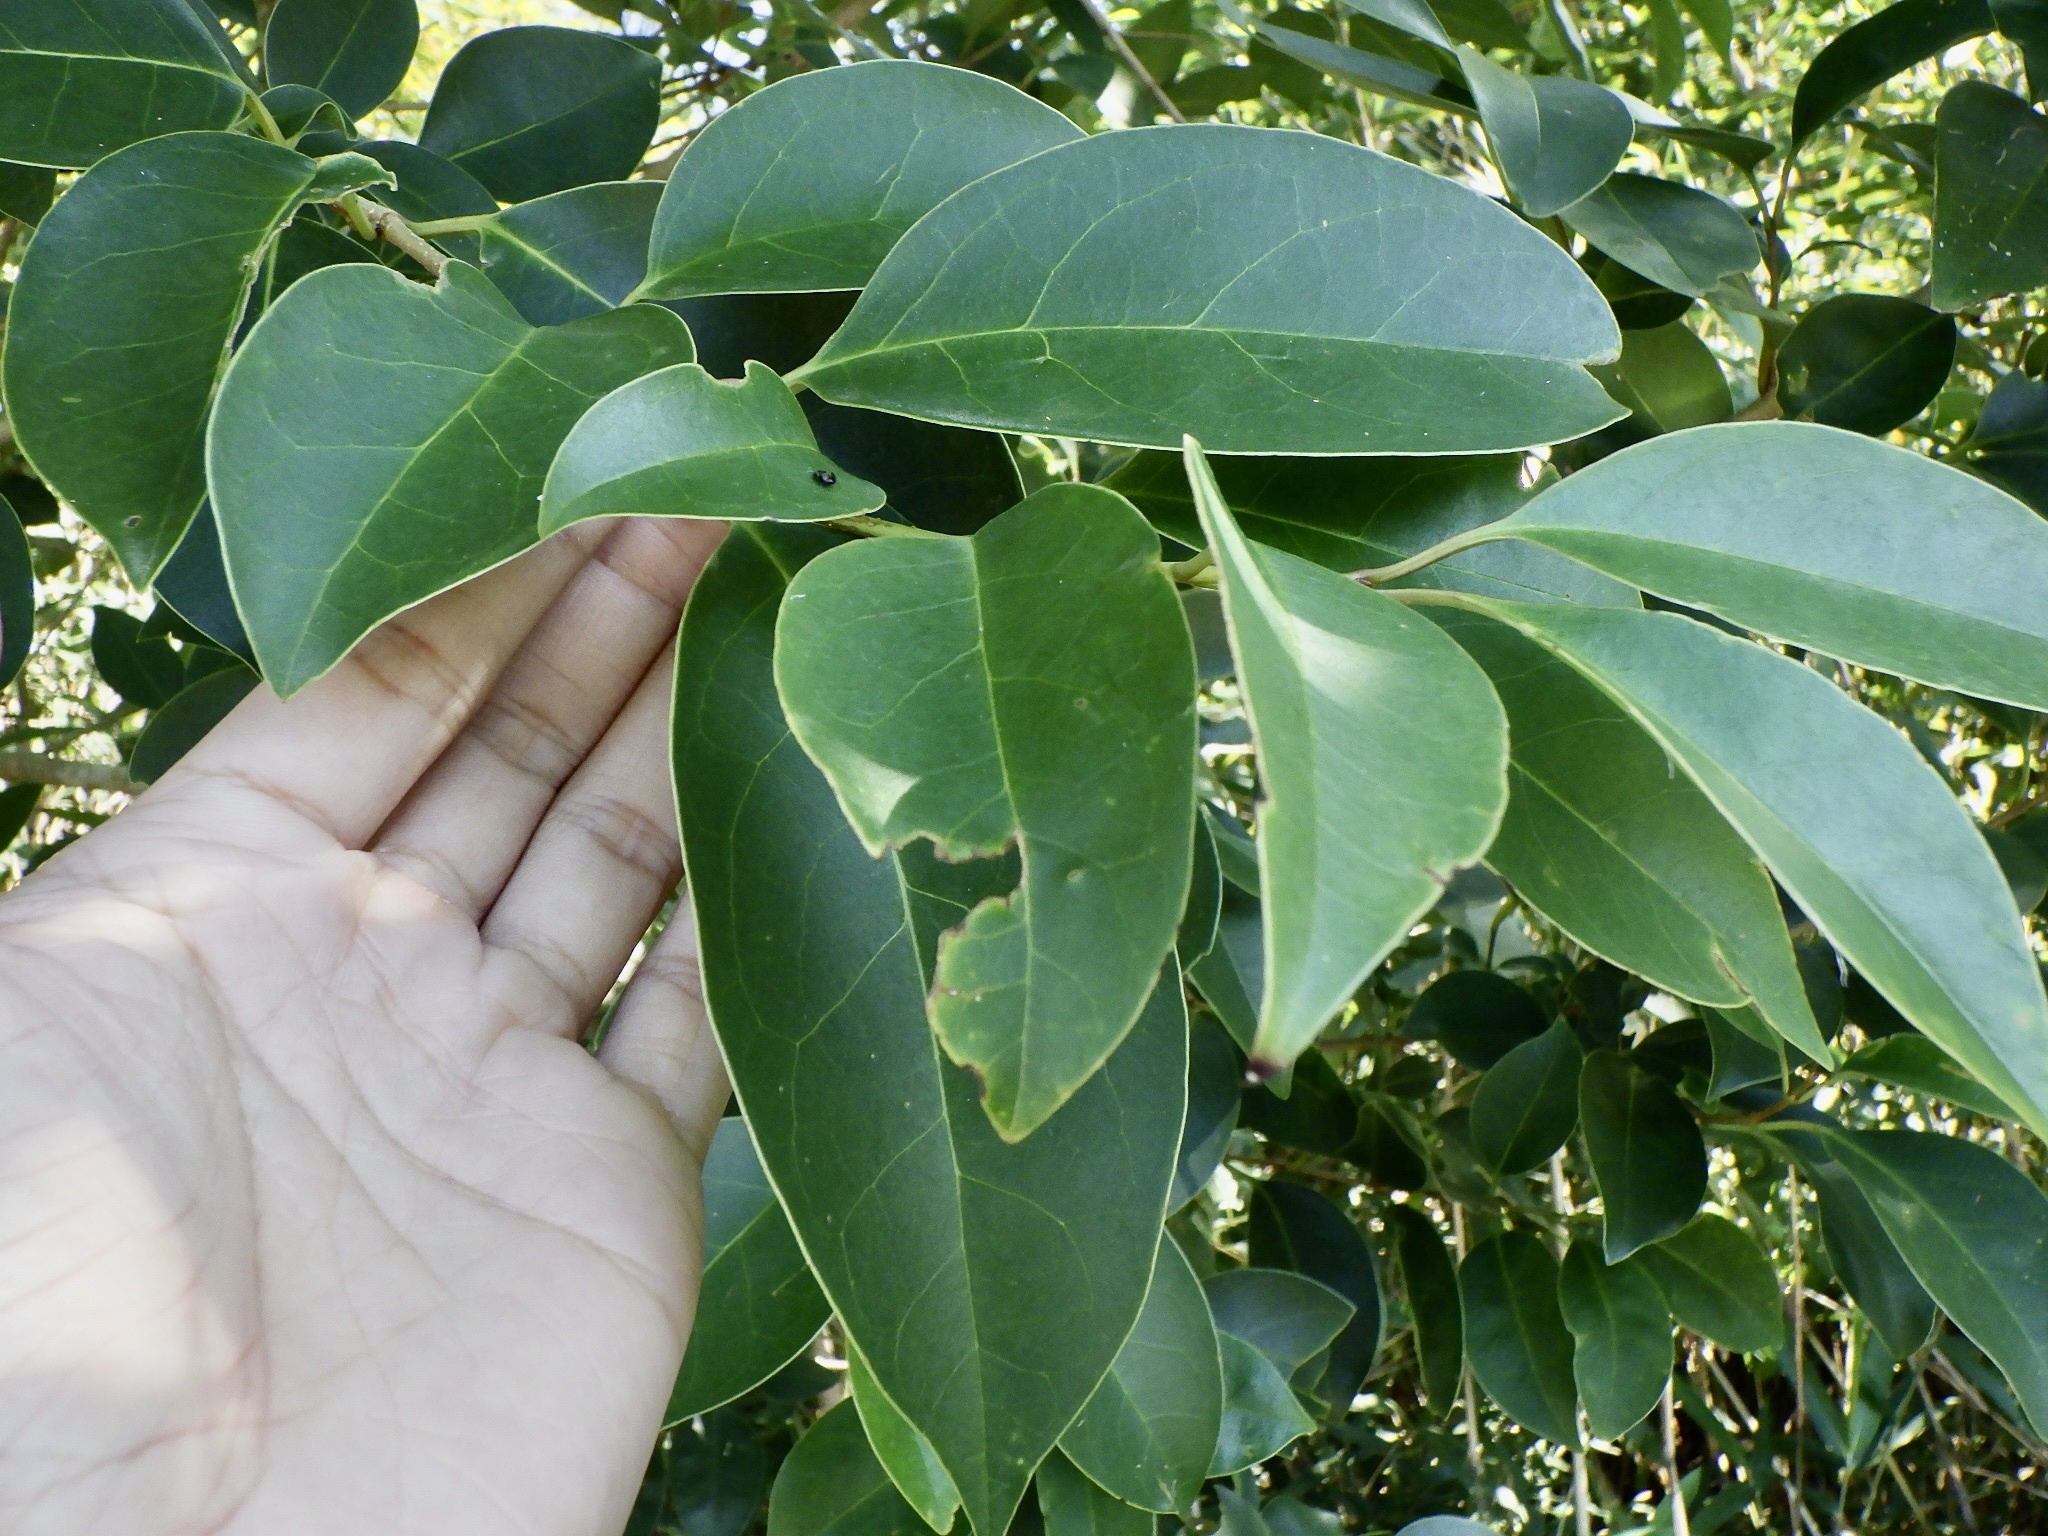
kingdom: Plantae
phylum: Tracheophyta
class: Magnoliopsida
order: Lamiales
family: Oleaceae
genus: Ligustrum
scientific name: Ligustrum lucidum
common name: Glossy privet
